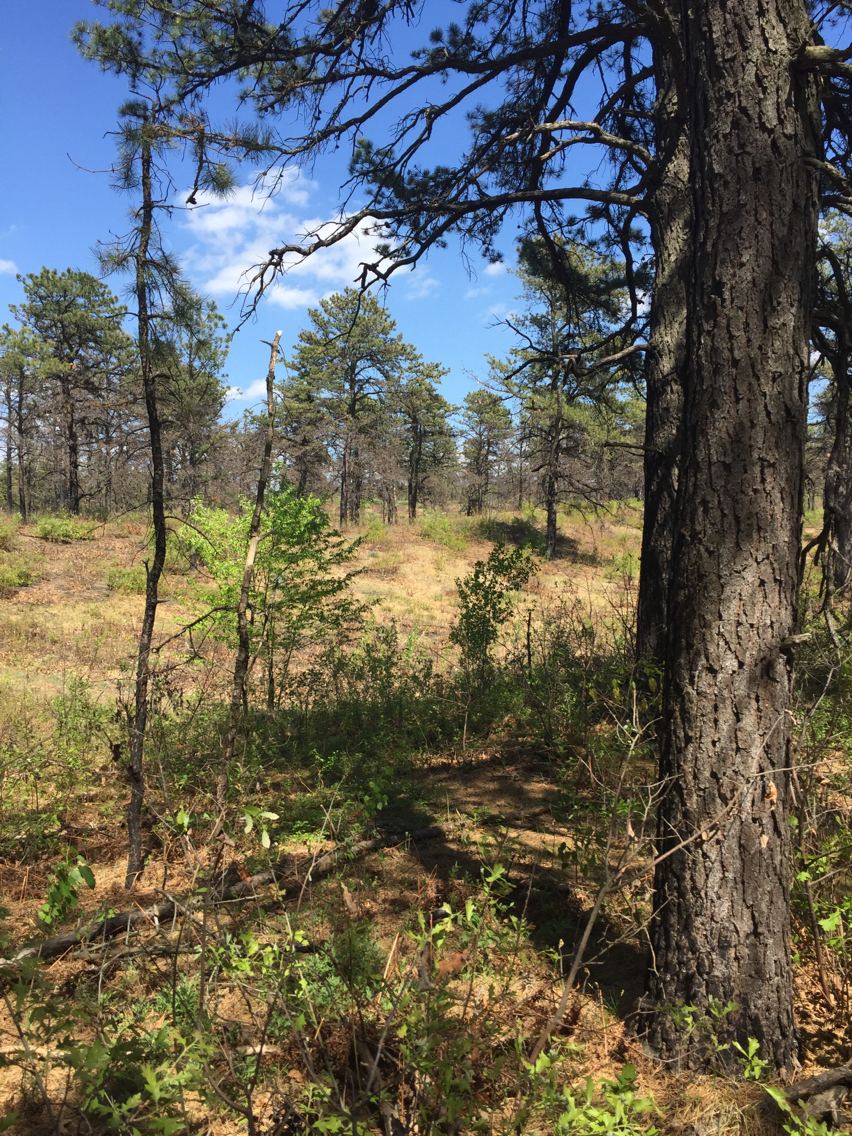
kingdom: Plantae
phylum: Tracheophyta
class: Pinopsida
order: Pinales
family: Pinaceae
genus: Pinus
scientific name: Pinus rigida
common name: Pitch pine
